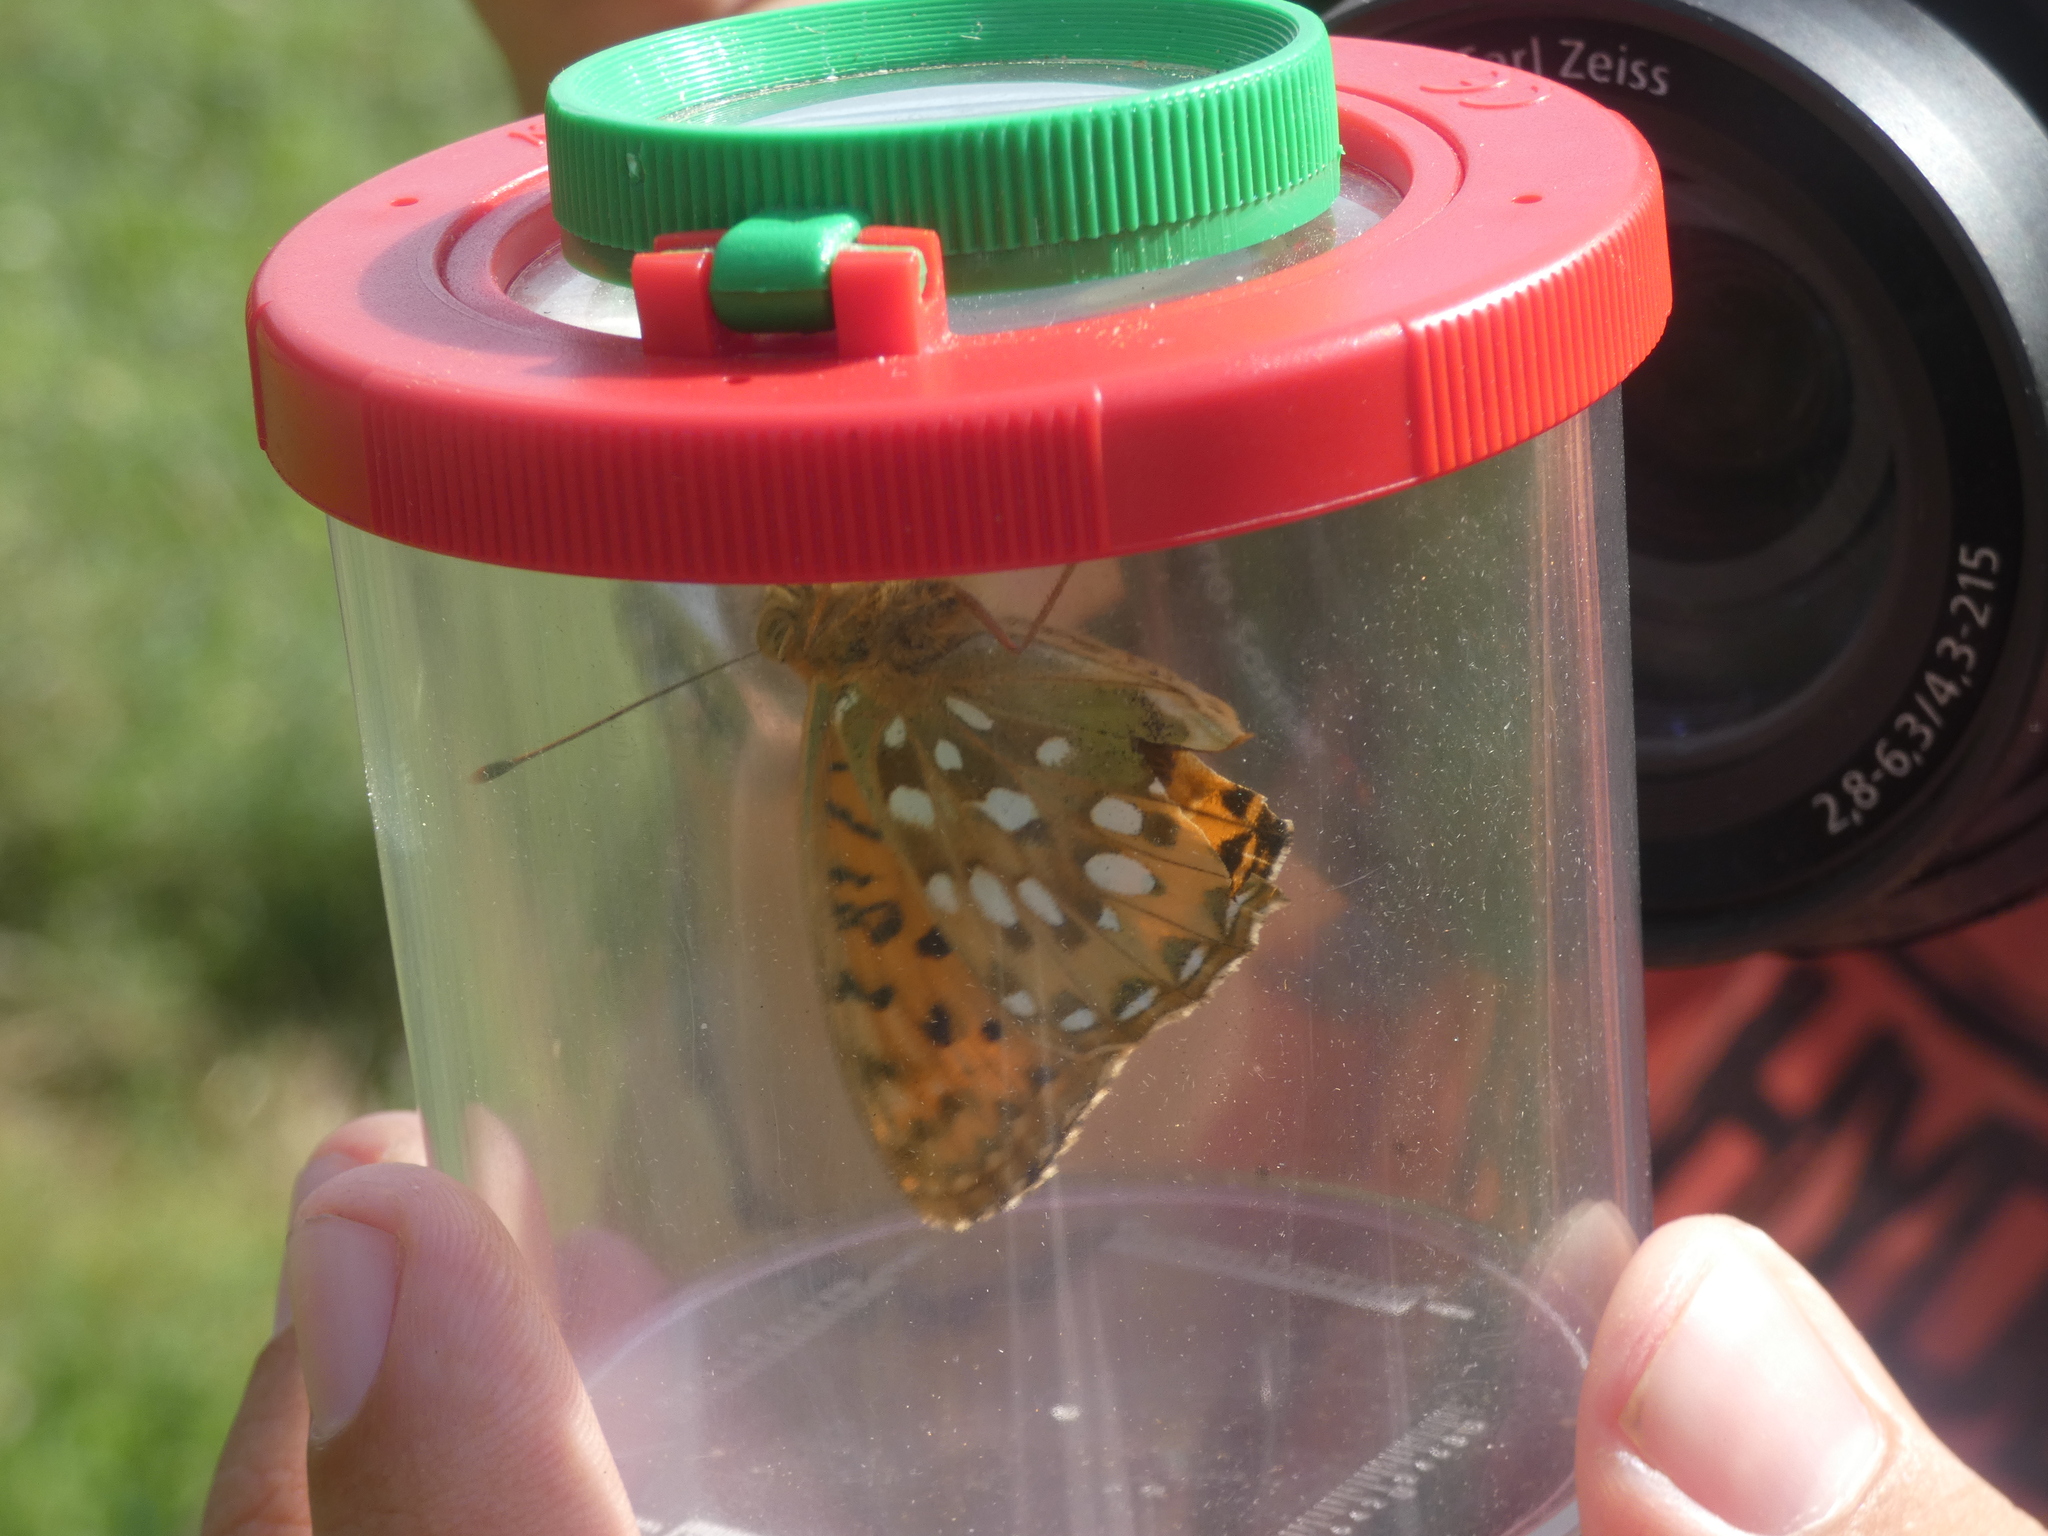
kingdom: Animalia
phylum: Arthropoda
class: Insecta
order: Lepidoptera
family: Nymphalidae
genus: Speyeria
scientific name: Speyeria aglaja
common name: Dark green fritillary
